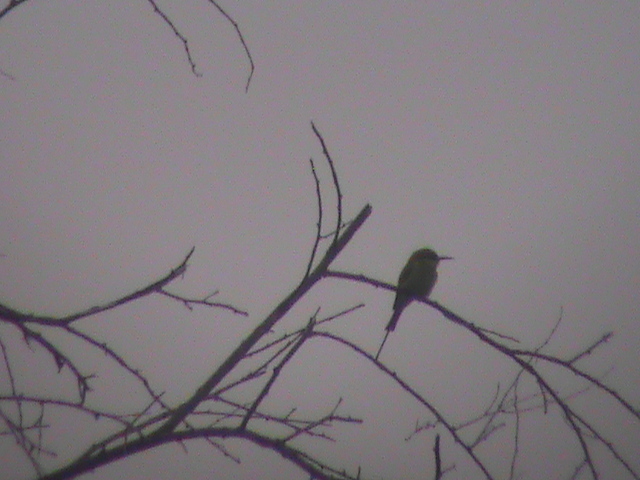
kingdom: Animalia
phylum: Chordata
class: Aves
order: Coraciiformes
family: Meropidae
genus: Merops
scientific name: Merops orientalis
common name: Green bee-eater
